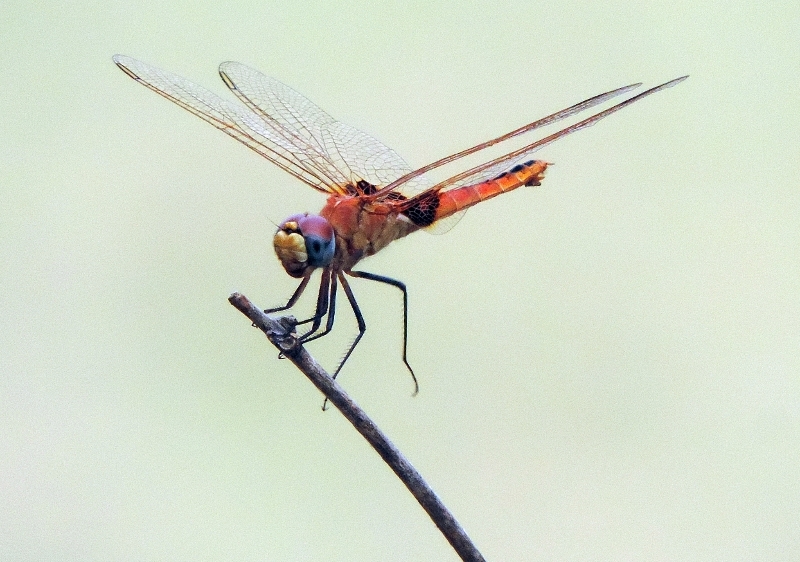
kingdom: Animalia
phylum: Arthropoda
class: Insecta
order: Odonata
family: Libellulidae
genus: Urothemis
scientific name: Urothemis assignata
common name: Red basker
